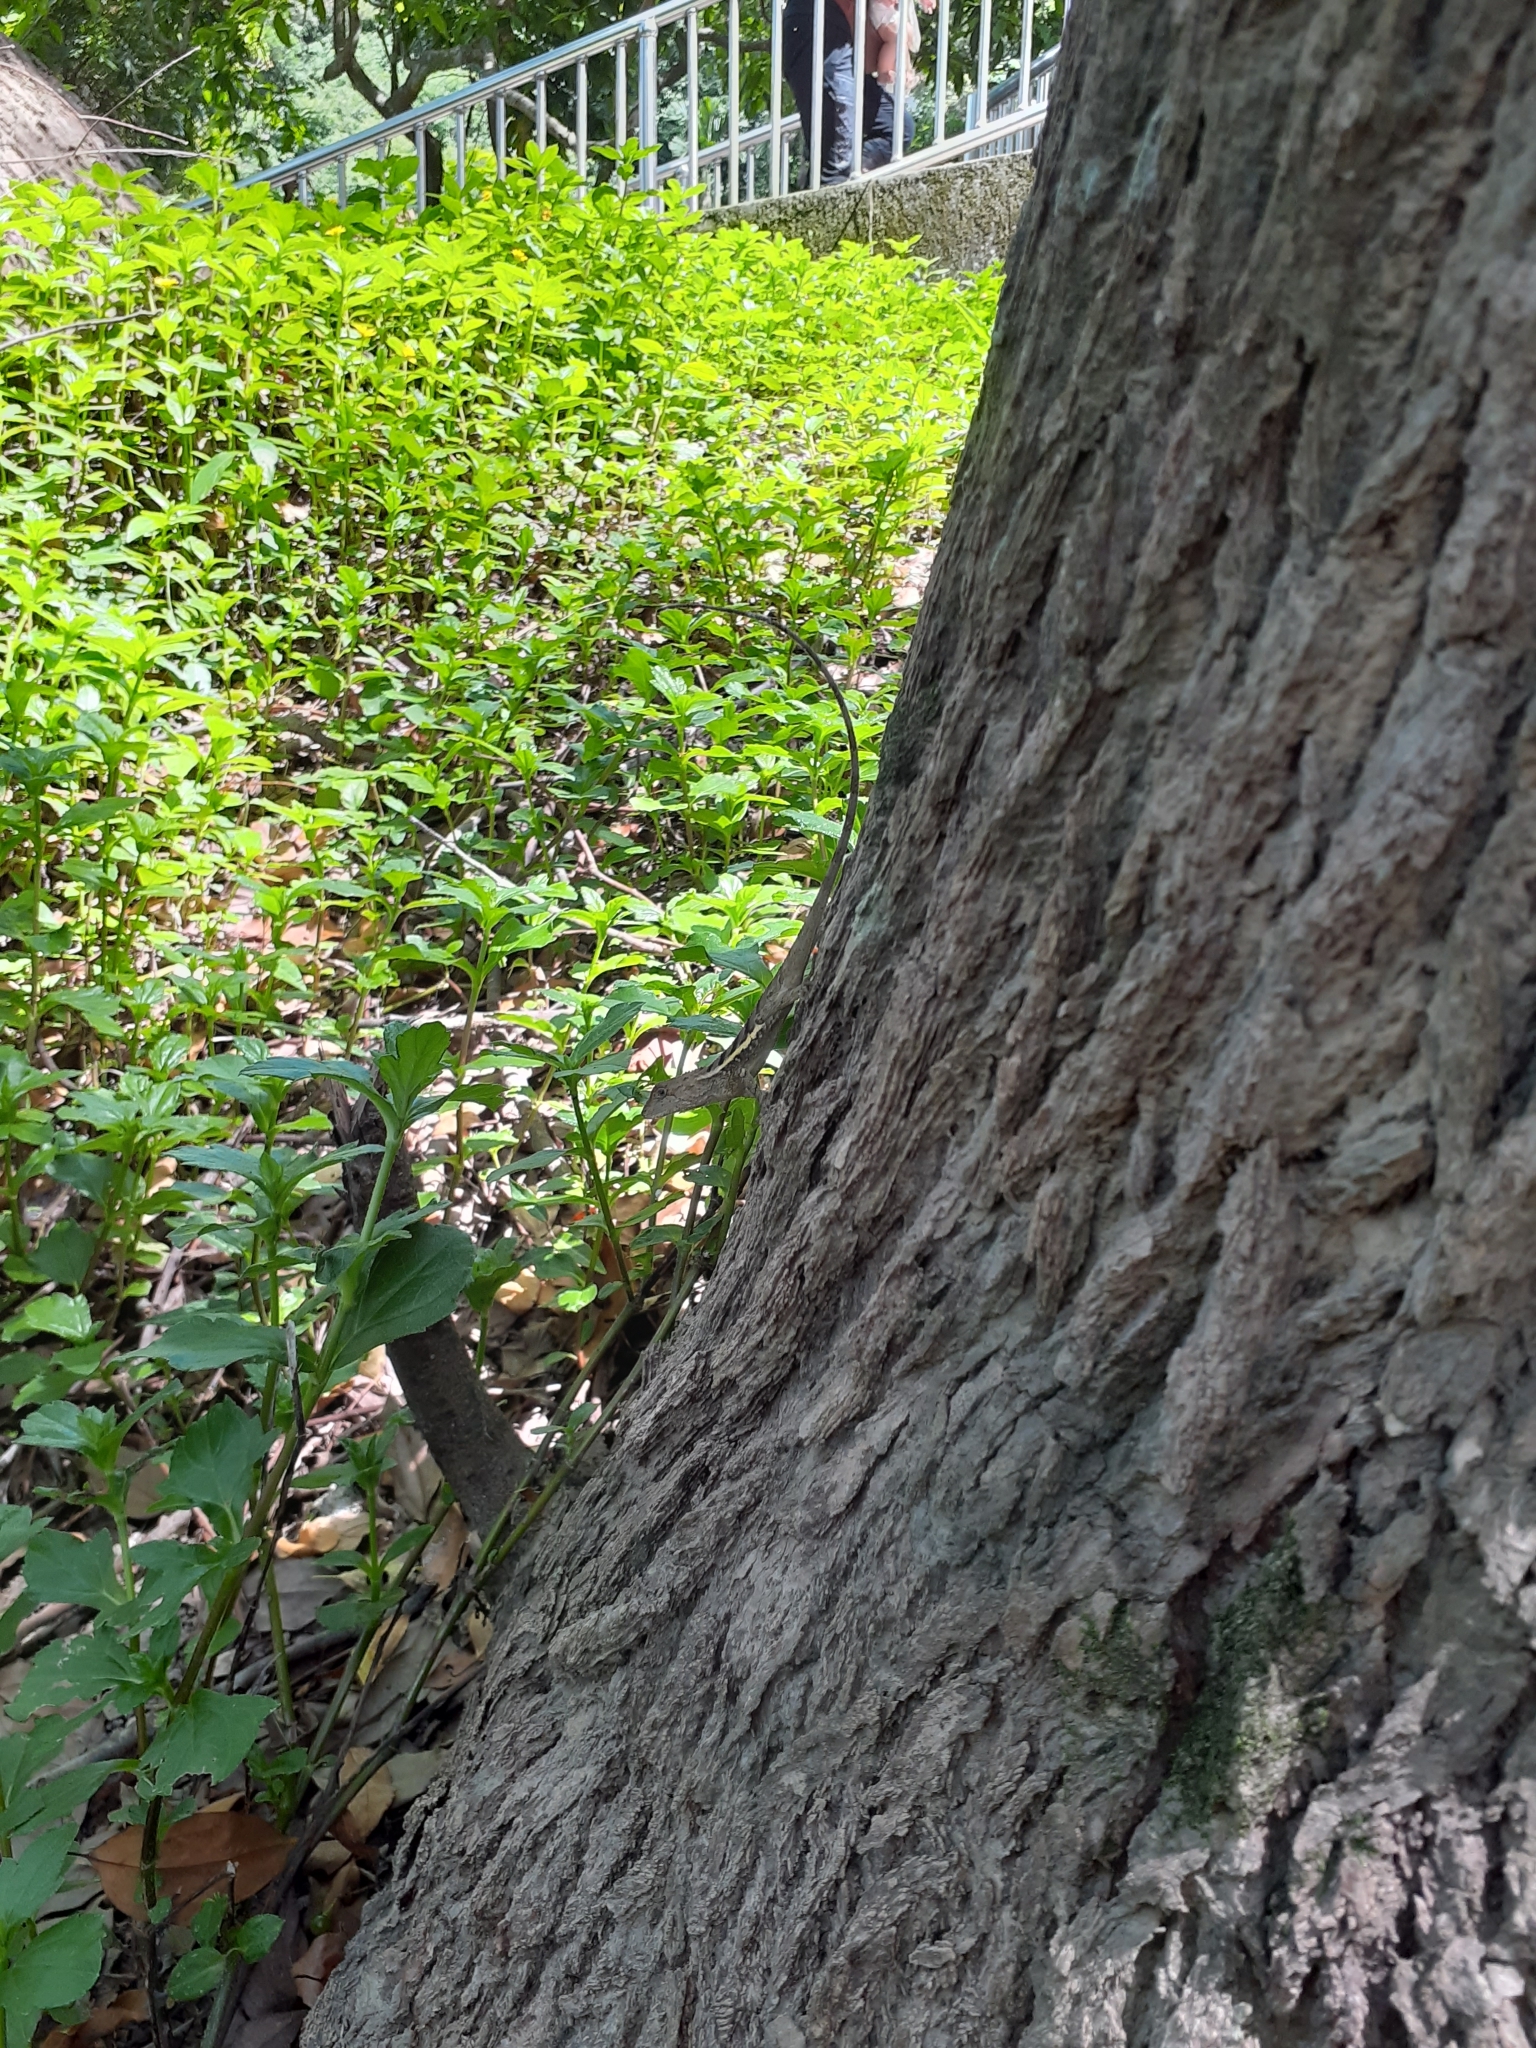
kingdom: Animalia
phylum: Chordata
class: Squamata
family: Agamidae
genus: Diploderma
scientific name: Diploderma swinhonis
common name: Taiwan japalure
